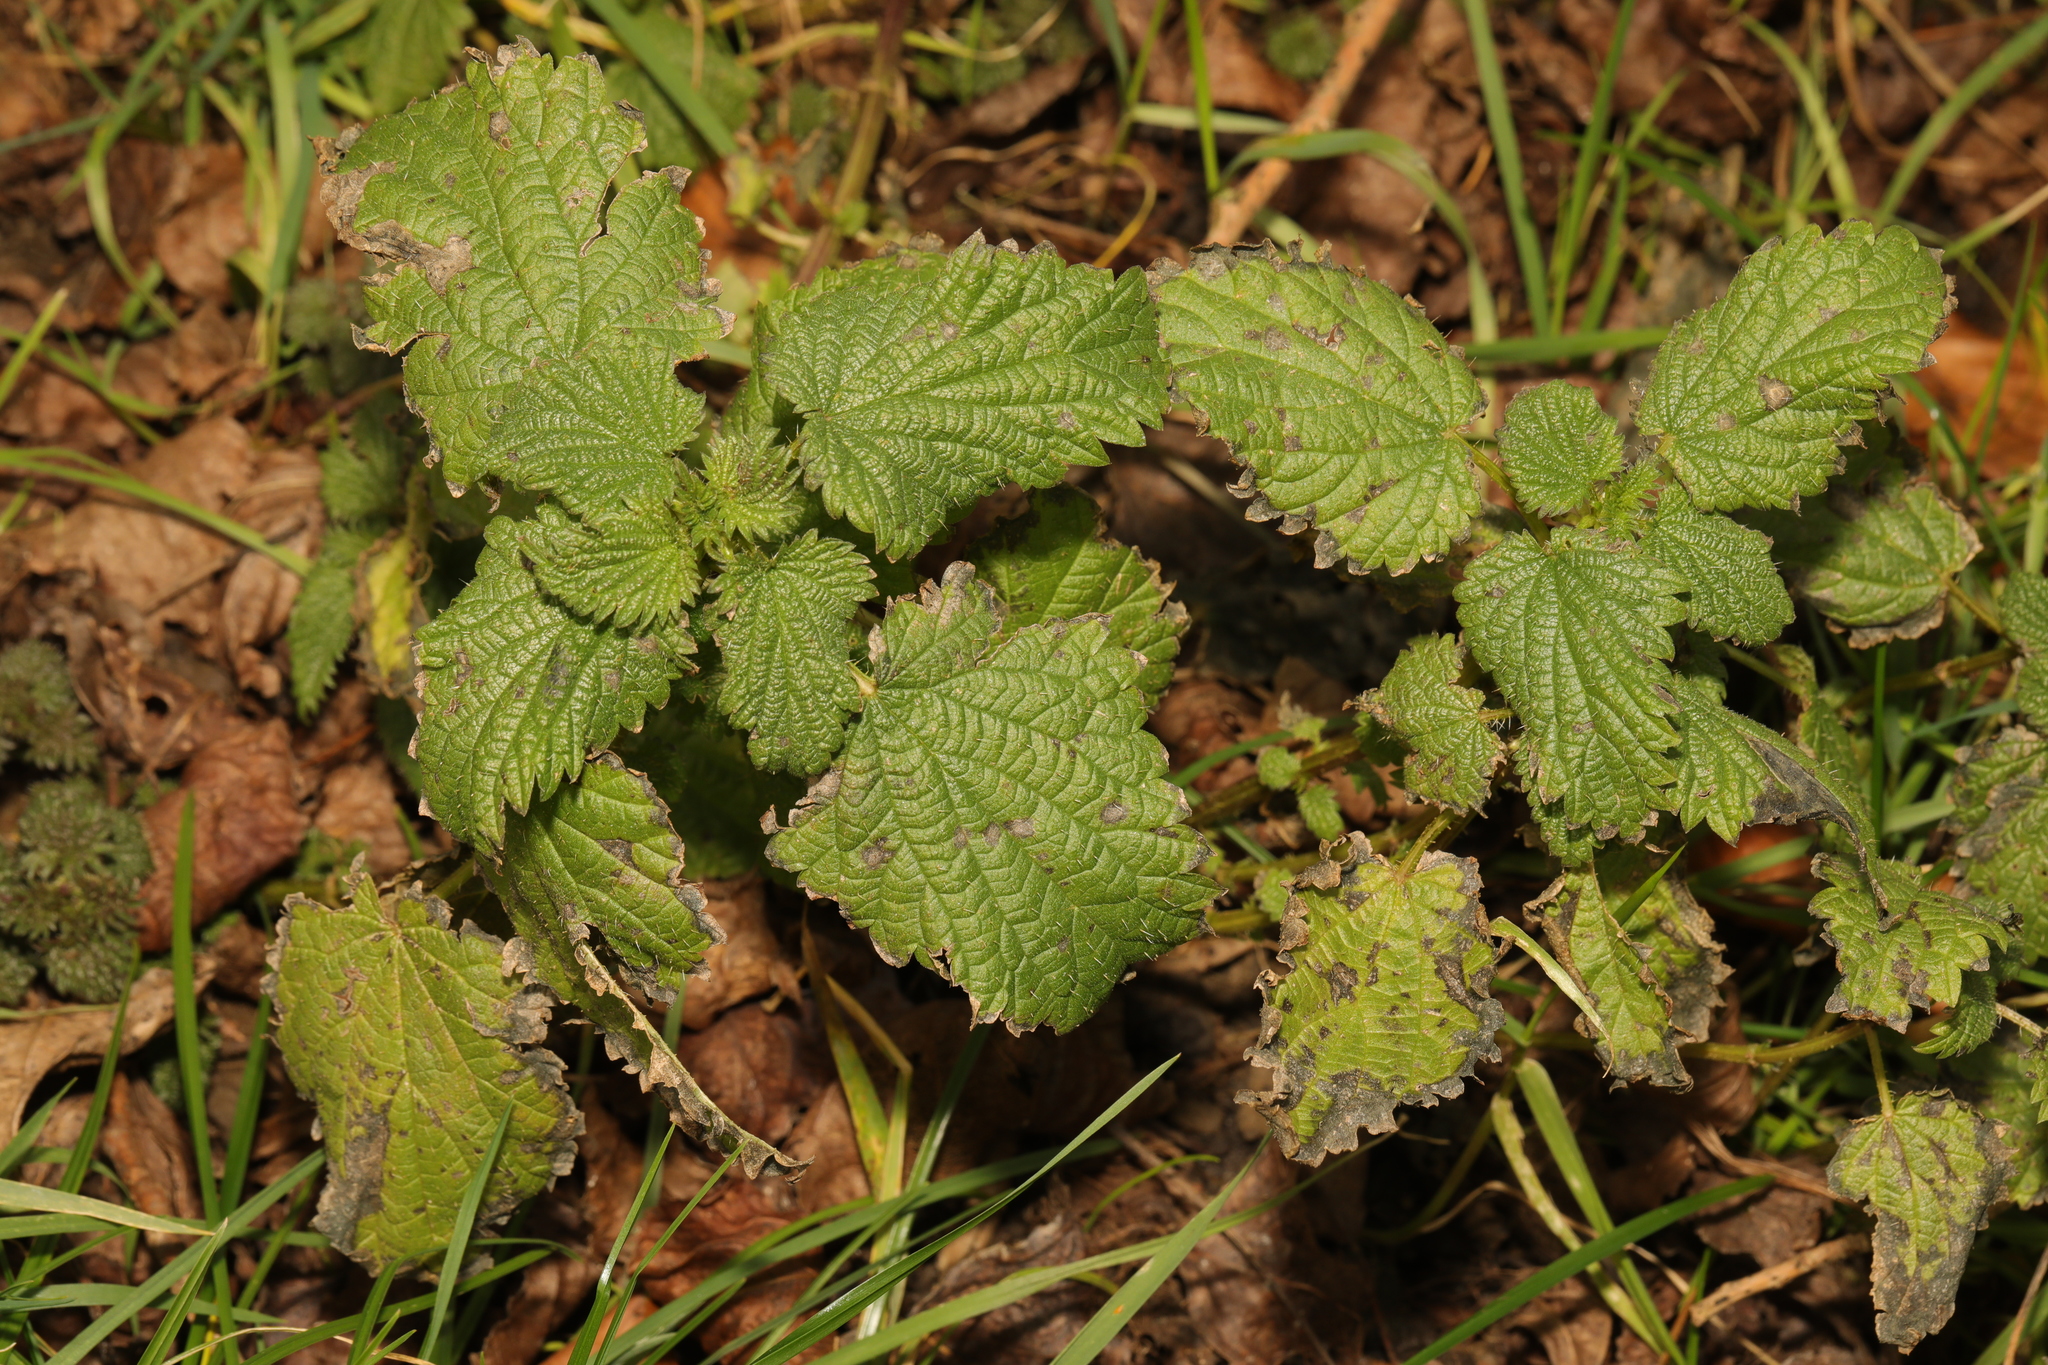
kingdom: Plantae
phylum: Tracheophyta
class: Magnoliopsida
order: Rosales
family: Urticaceae
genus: Urtica
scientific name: Urtica dioica
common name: Common nettle
